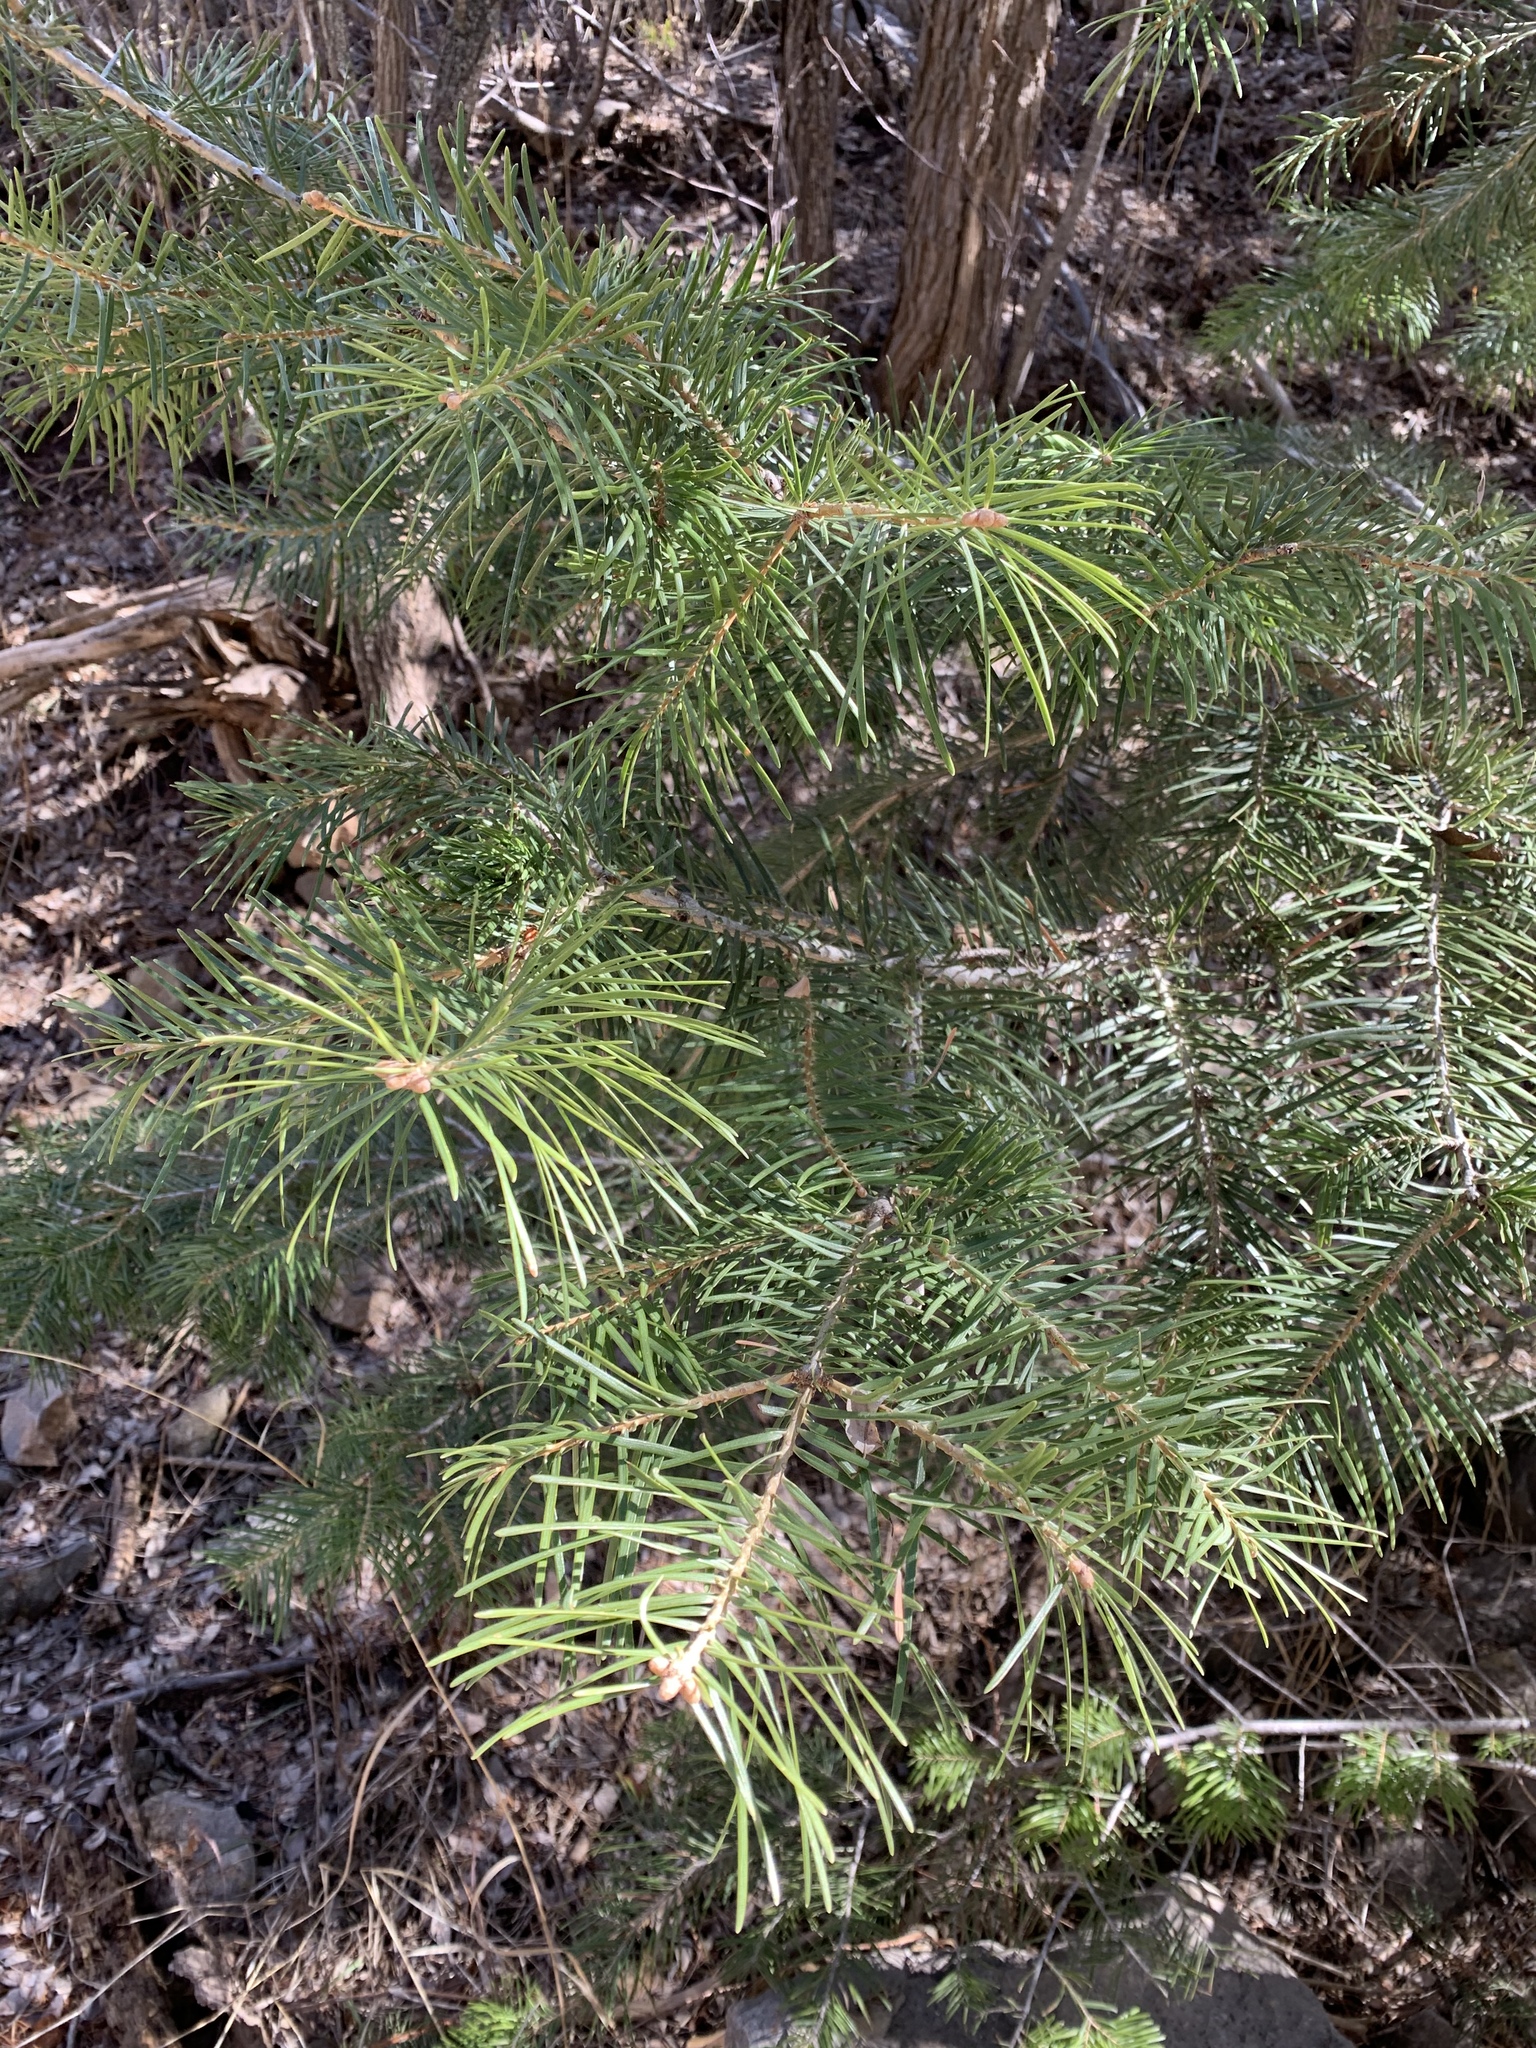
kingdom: Plantae
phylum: Tracheophyta
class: Pinopsida
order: Pinales
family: Pinaceae
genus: Abies
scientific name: Abies concolor
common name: Colorado fir
